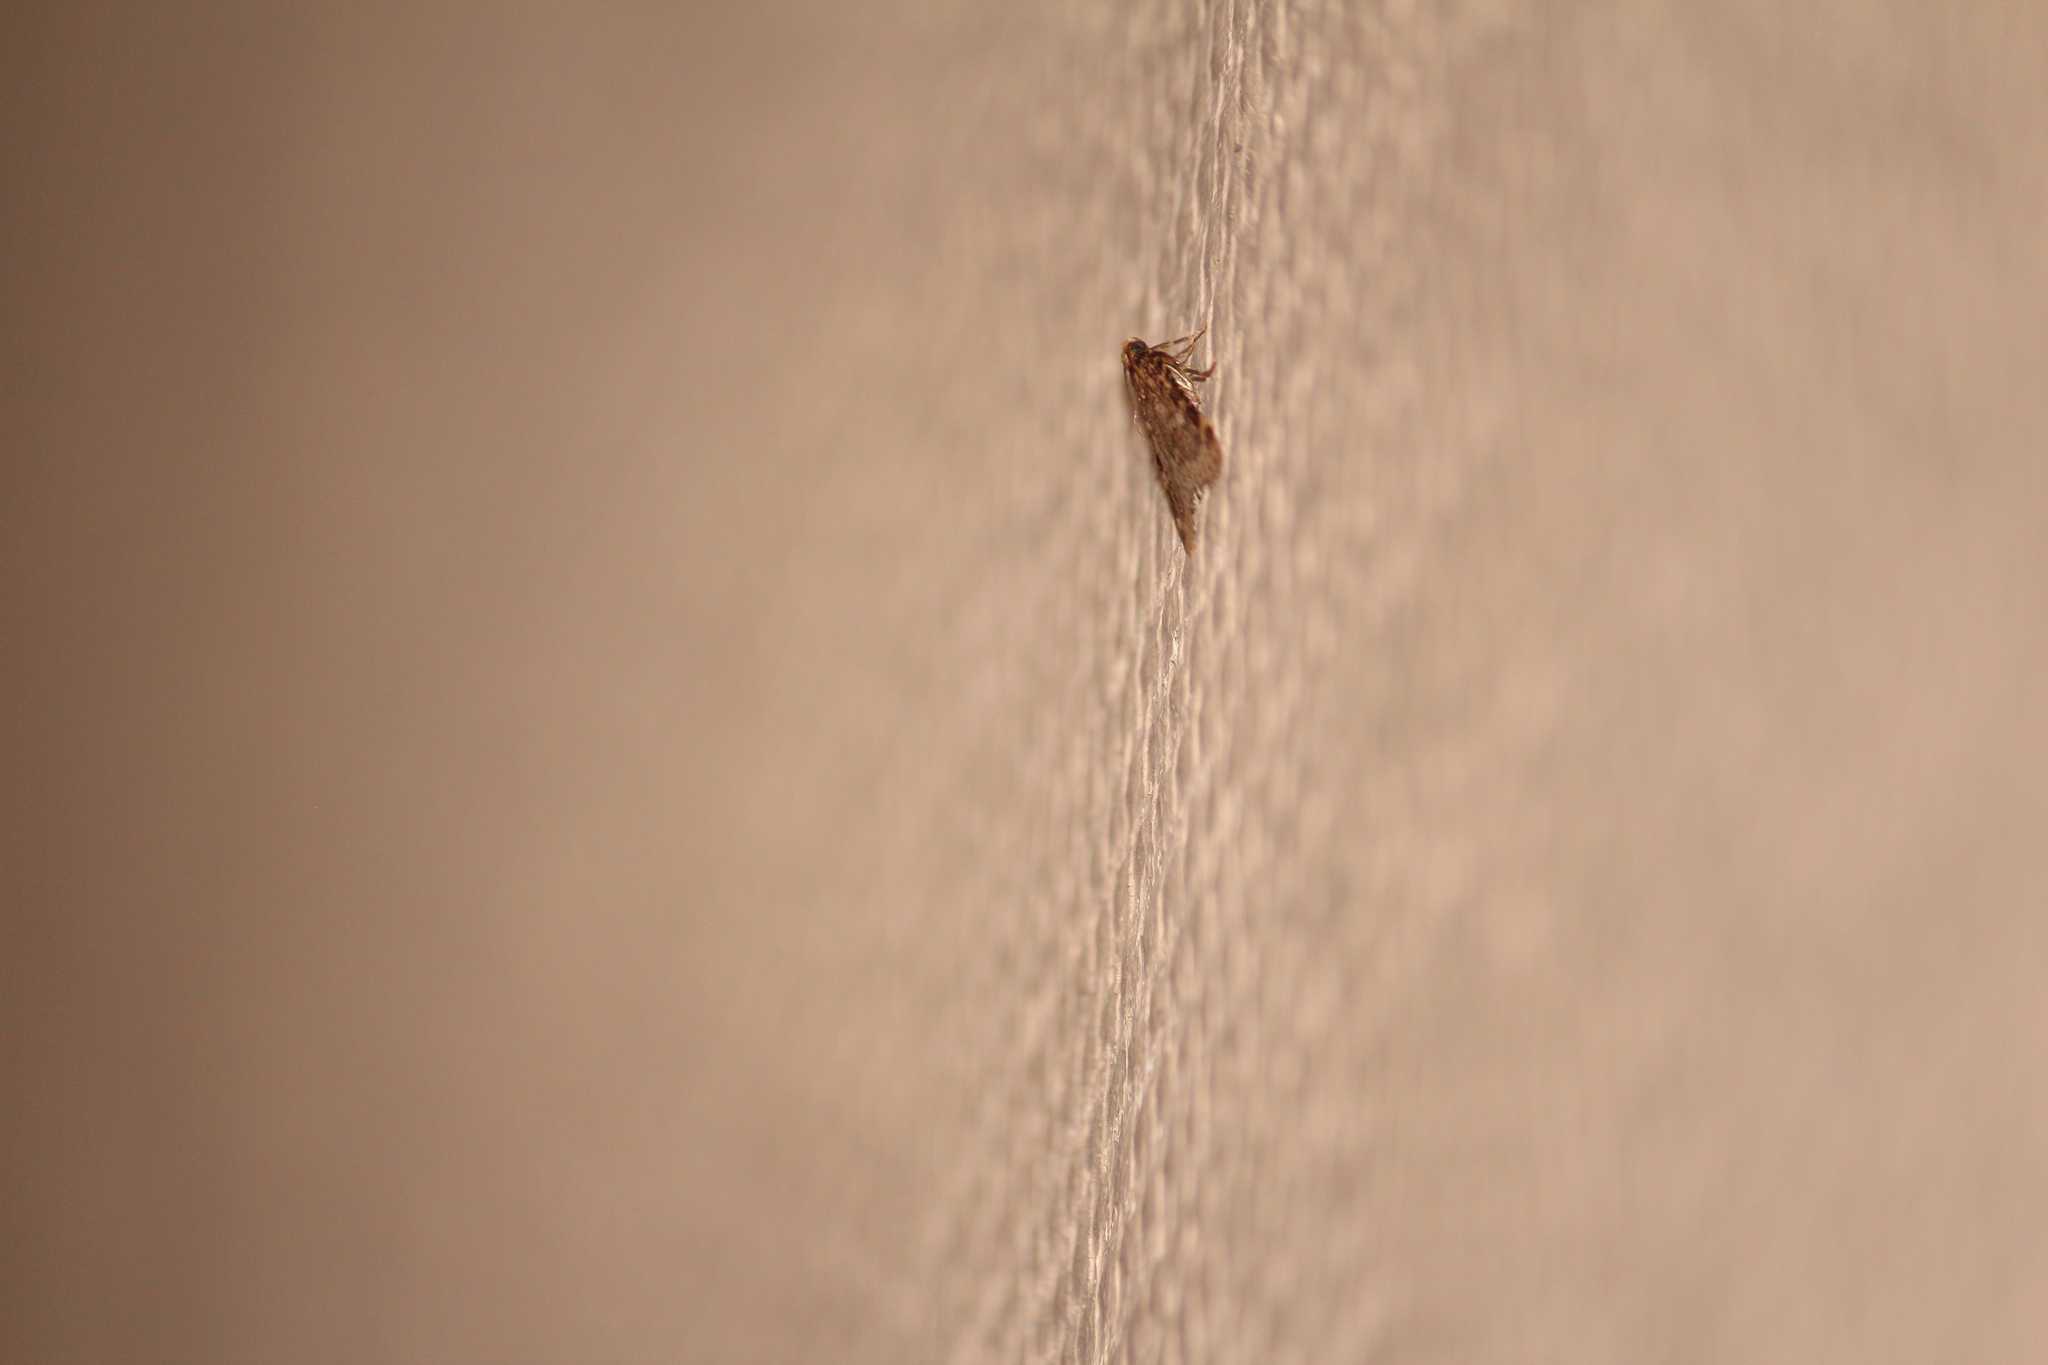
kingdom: Animalia
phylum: Arthropoda
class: Insecta
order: Lepidoptera
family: Pyralidae
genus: Aglossa
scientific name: Aglossa caprealis
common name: Small tabby
